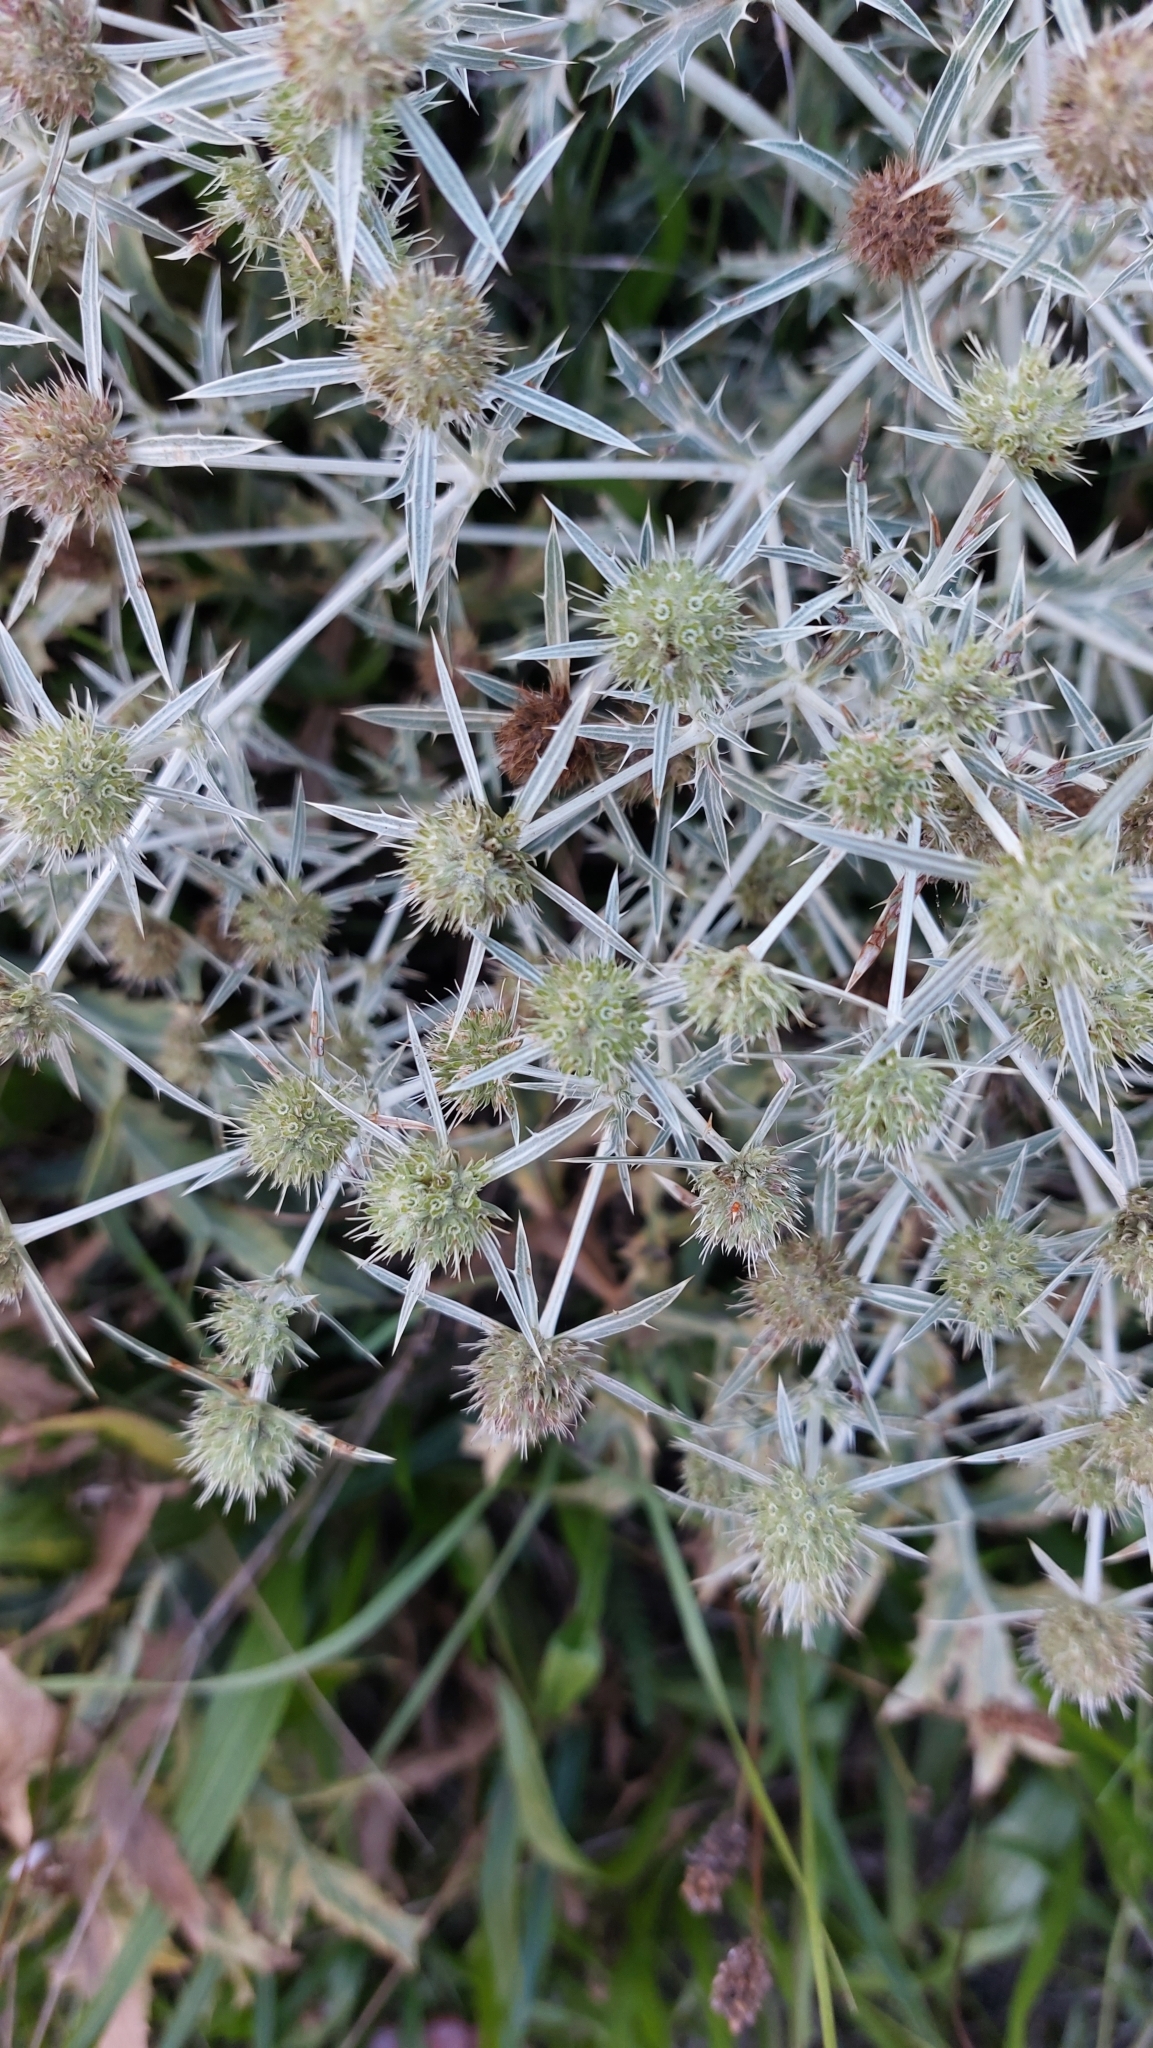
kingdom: Plantae
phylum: Tracheophyta
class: Magnoliopsida
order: Apiales
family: Apiaceae
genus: Eryngium
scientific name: Eryngium campestre
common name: Field eryngo
